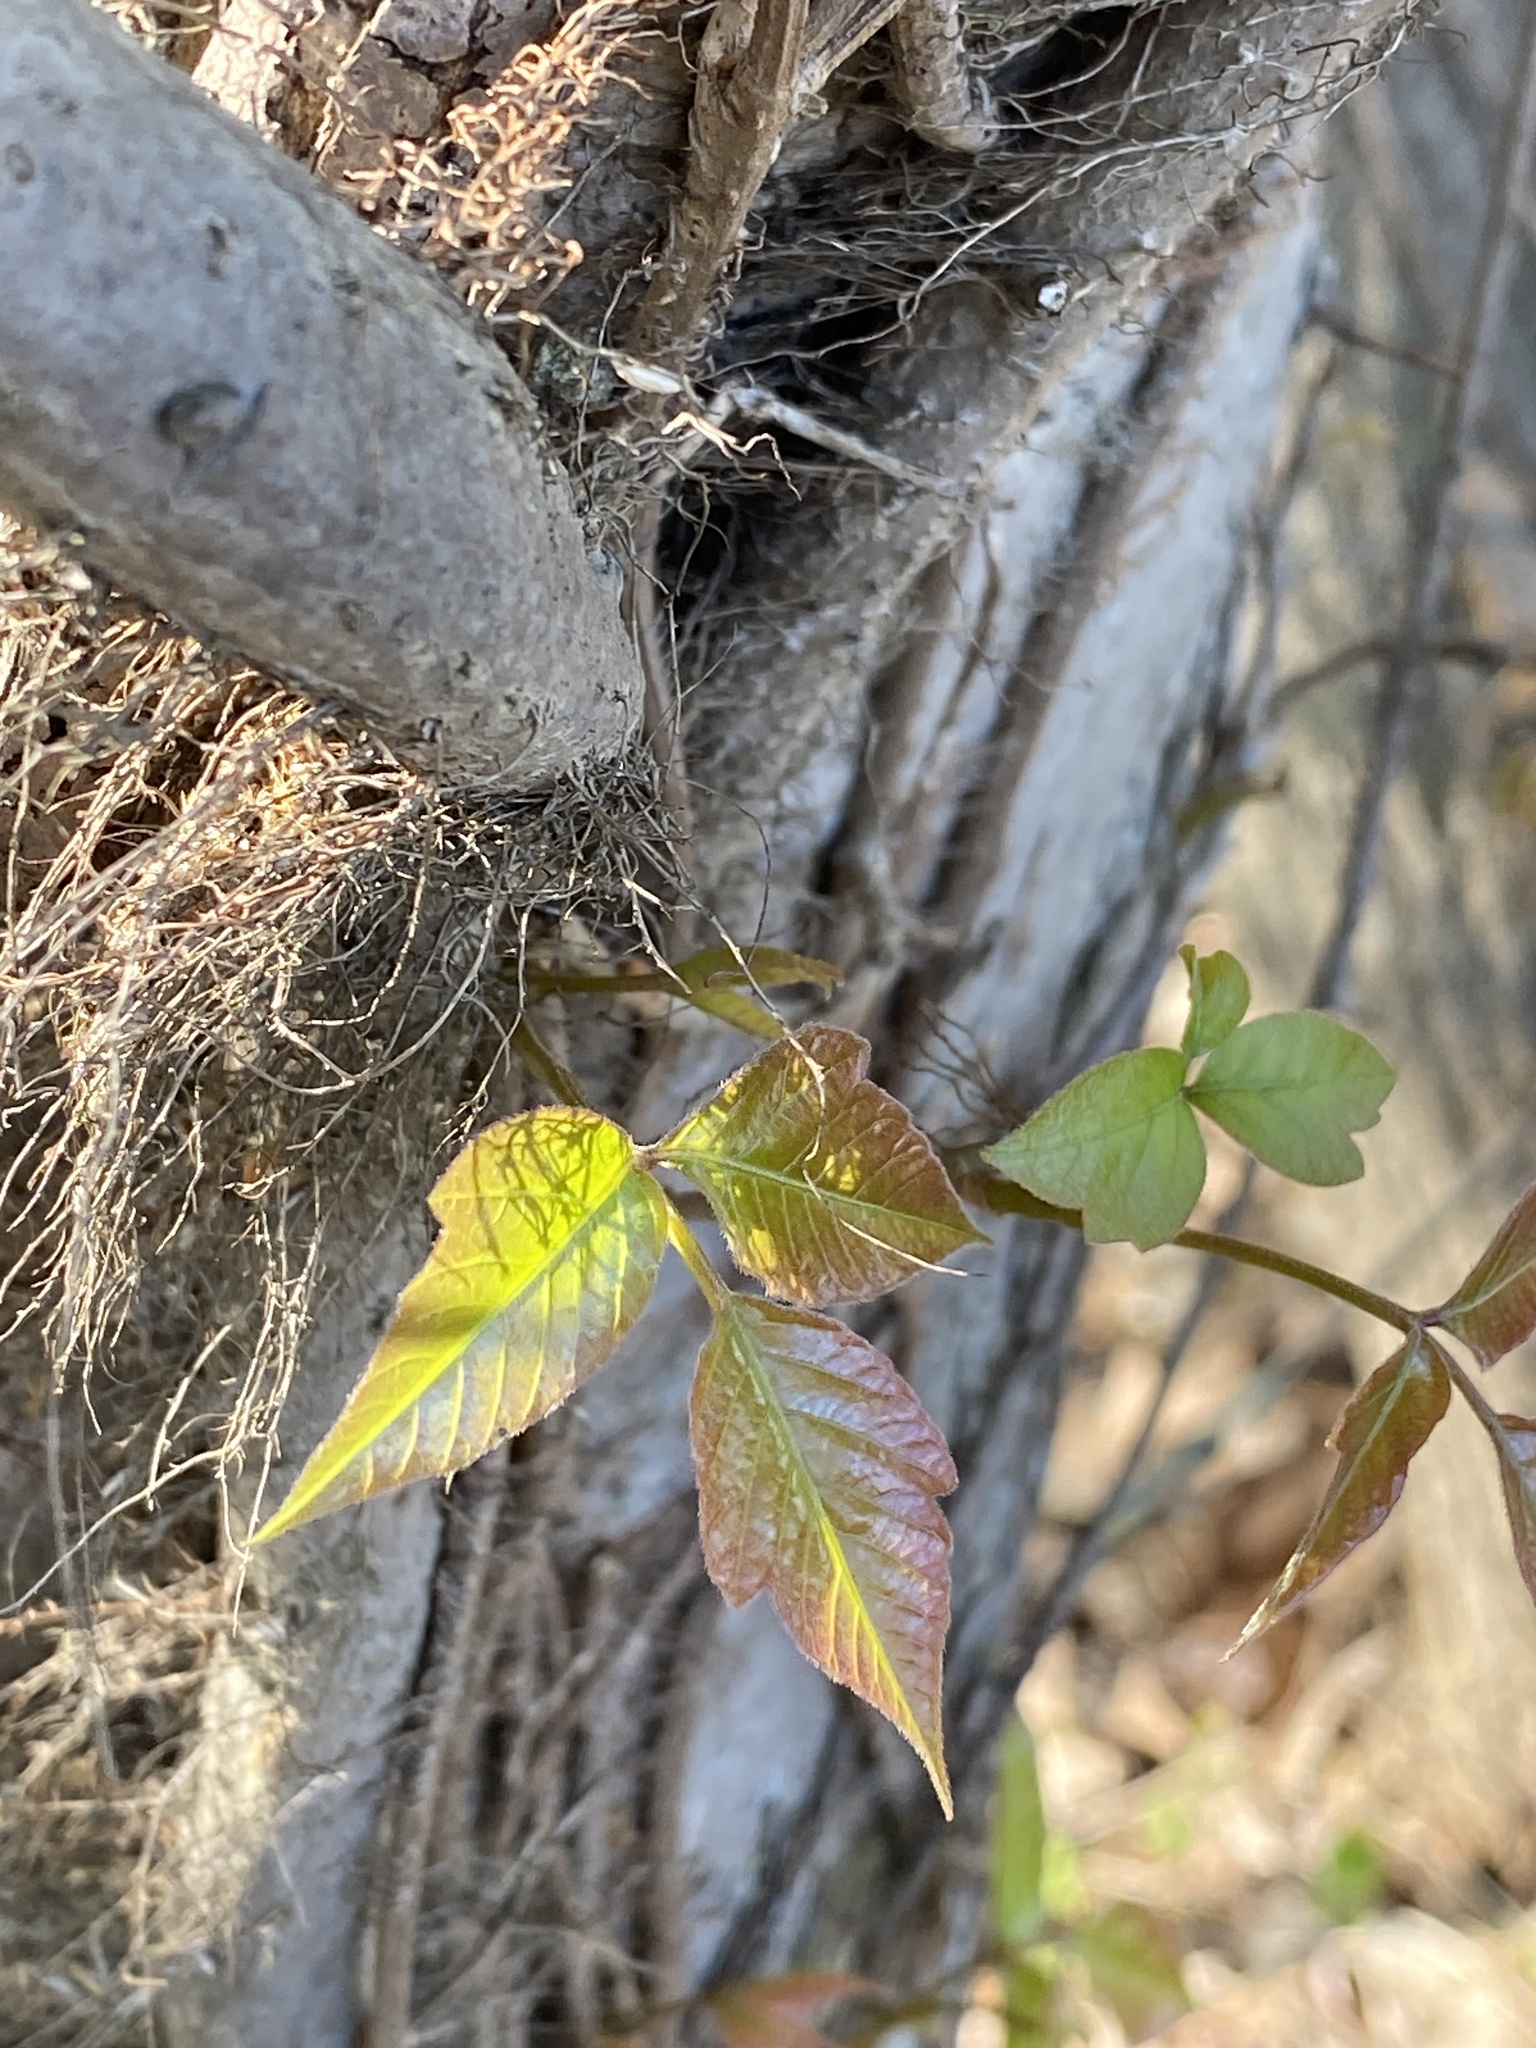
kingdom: Plantae
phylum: Tracheophyta
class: Magnoliopsida
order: Sapindales
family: Anacardiaceae
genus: Toxicodendron
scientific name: Toxicodendron radicans
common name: Poison ivy
